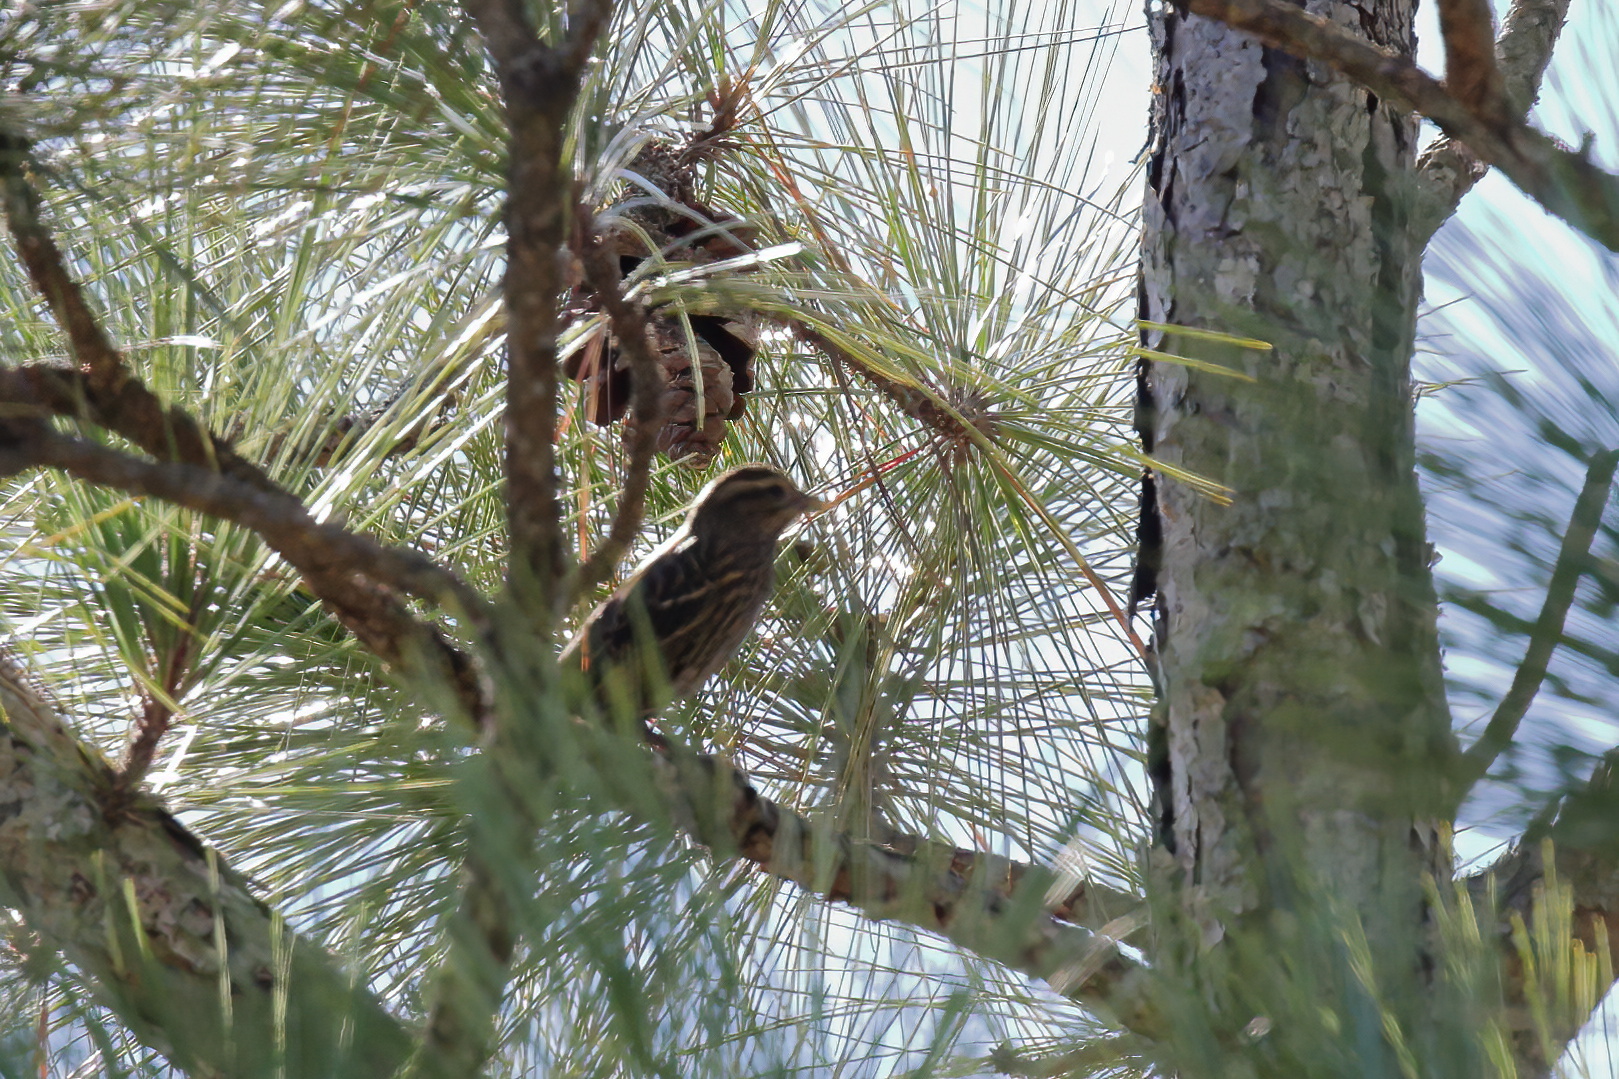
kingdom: Animalia
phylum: Chordata
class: Aves
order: Passeriformes
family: Icteridae
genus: Agelaius
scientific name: Agelaius phoeniceus
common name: Red-winged blackbird
